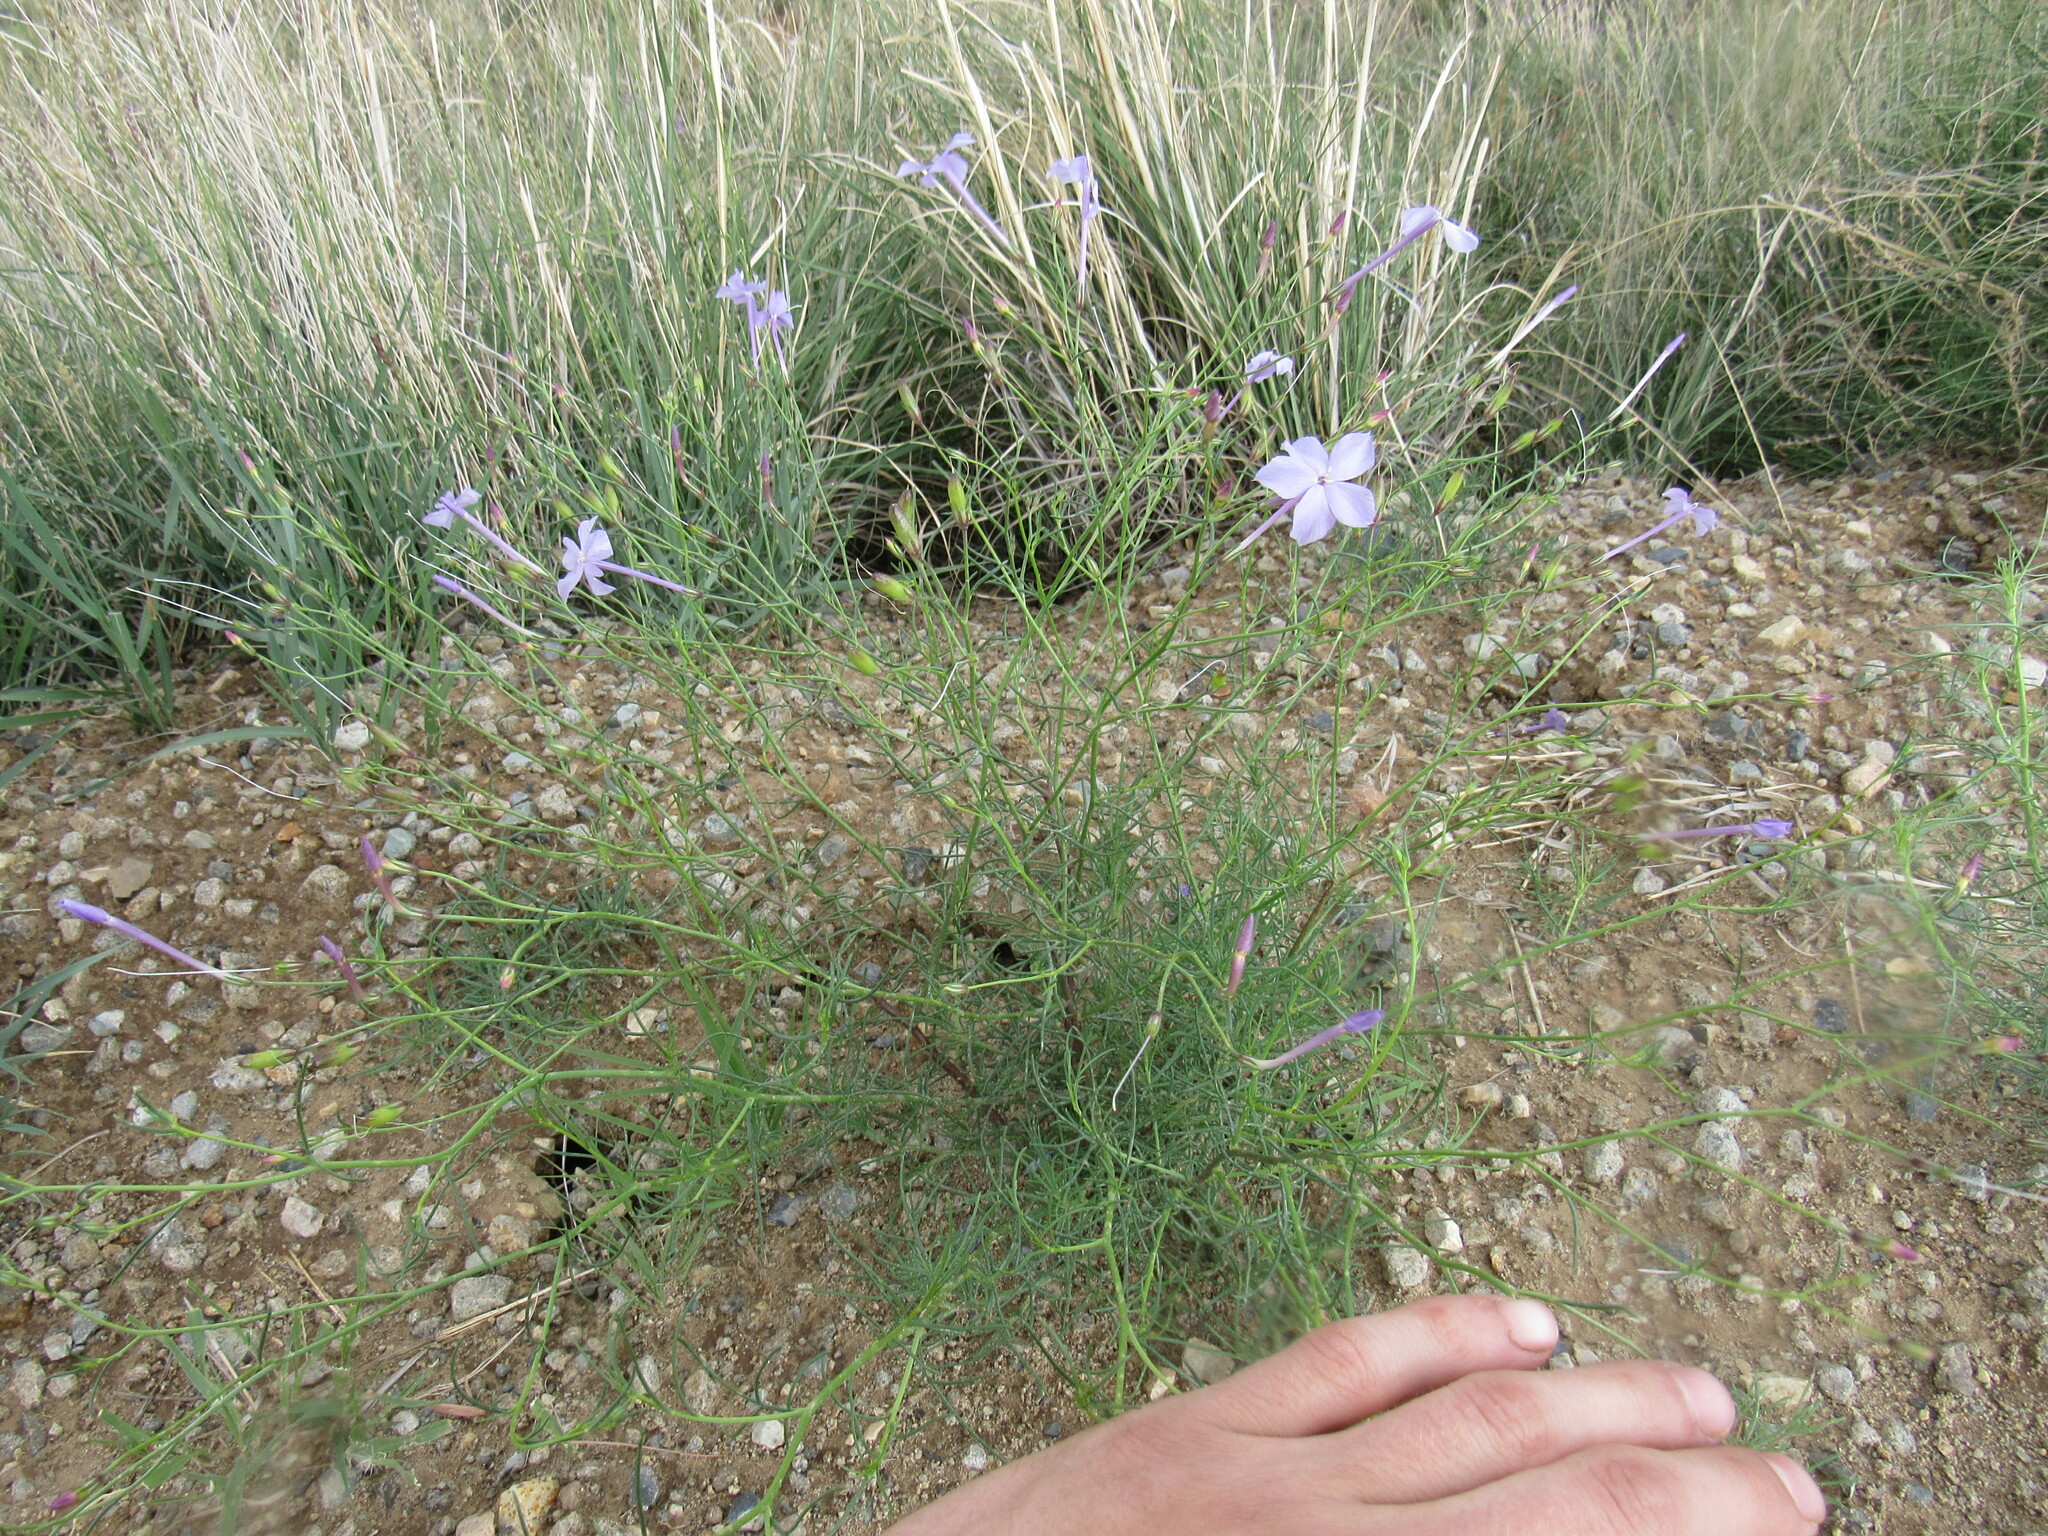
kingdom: Plantae
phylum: Tracheophyta
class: Magnoliopsida
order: Ericales
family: Polemoniaceae
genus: Ipomopsis
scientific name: Ipomopsis longiflora
